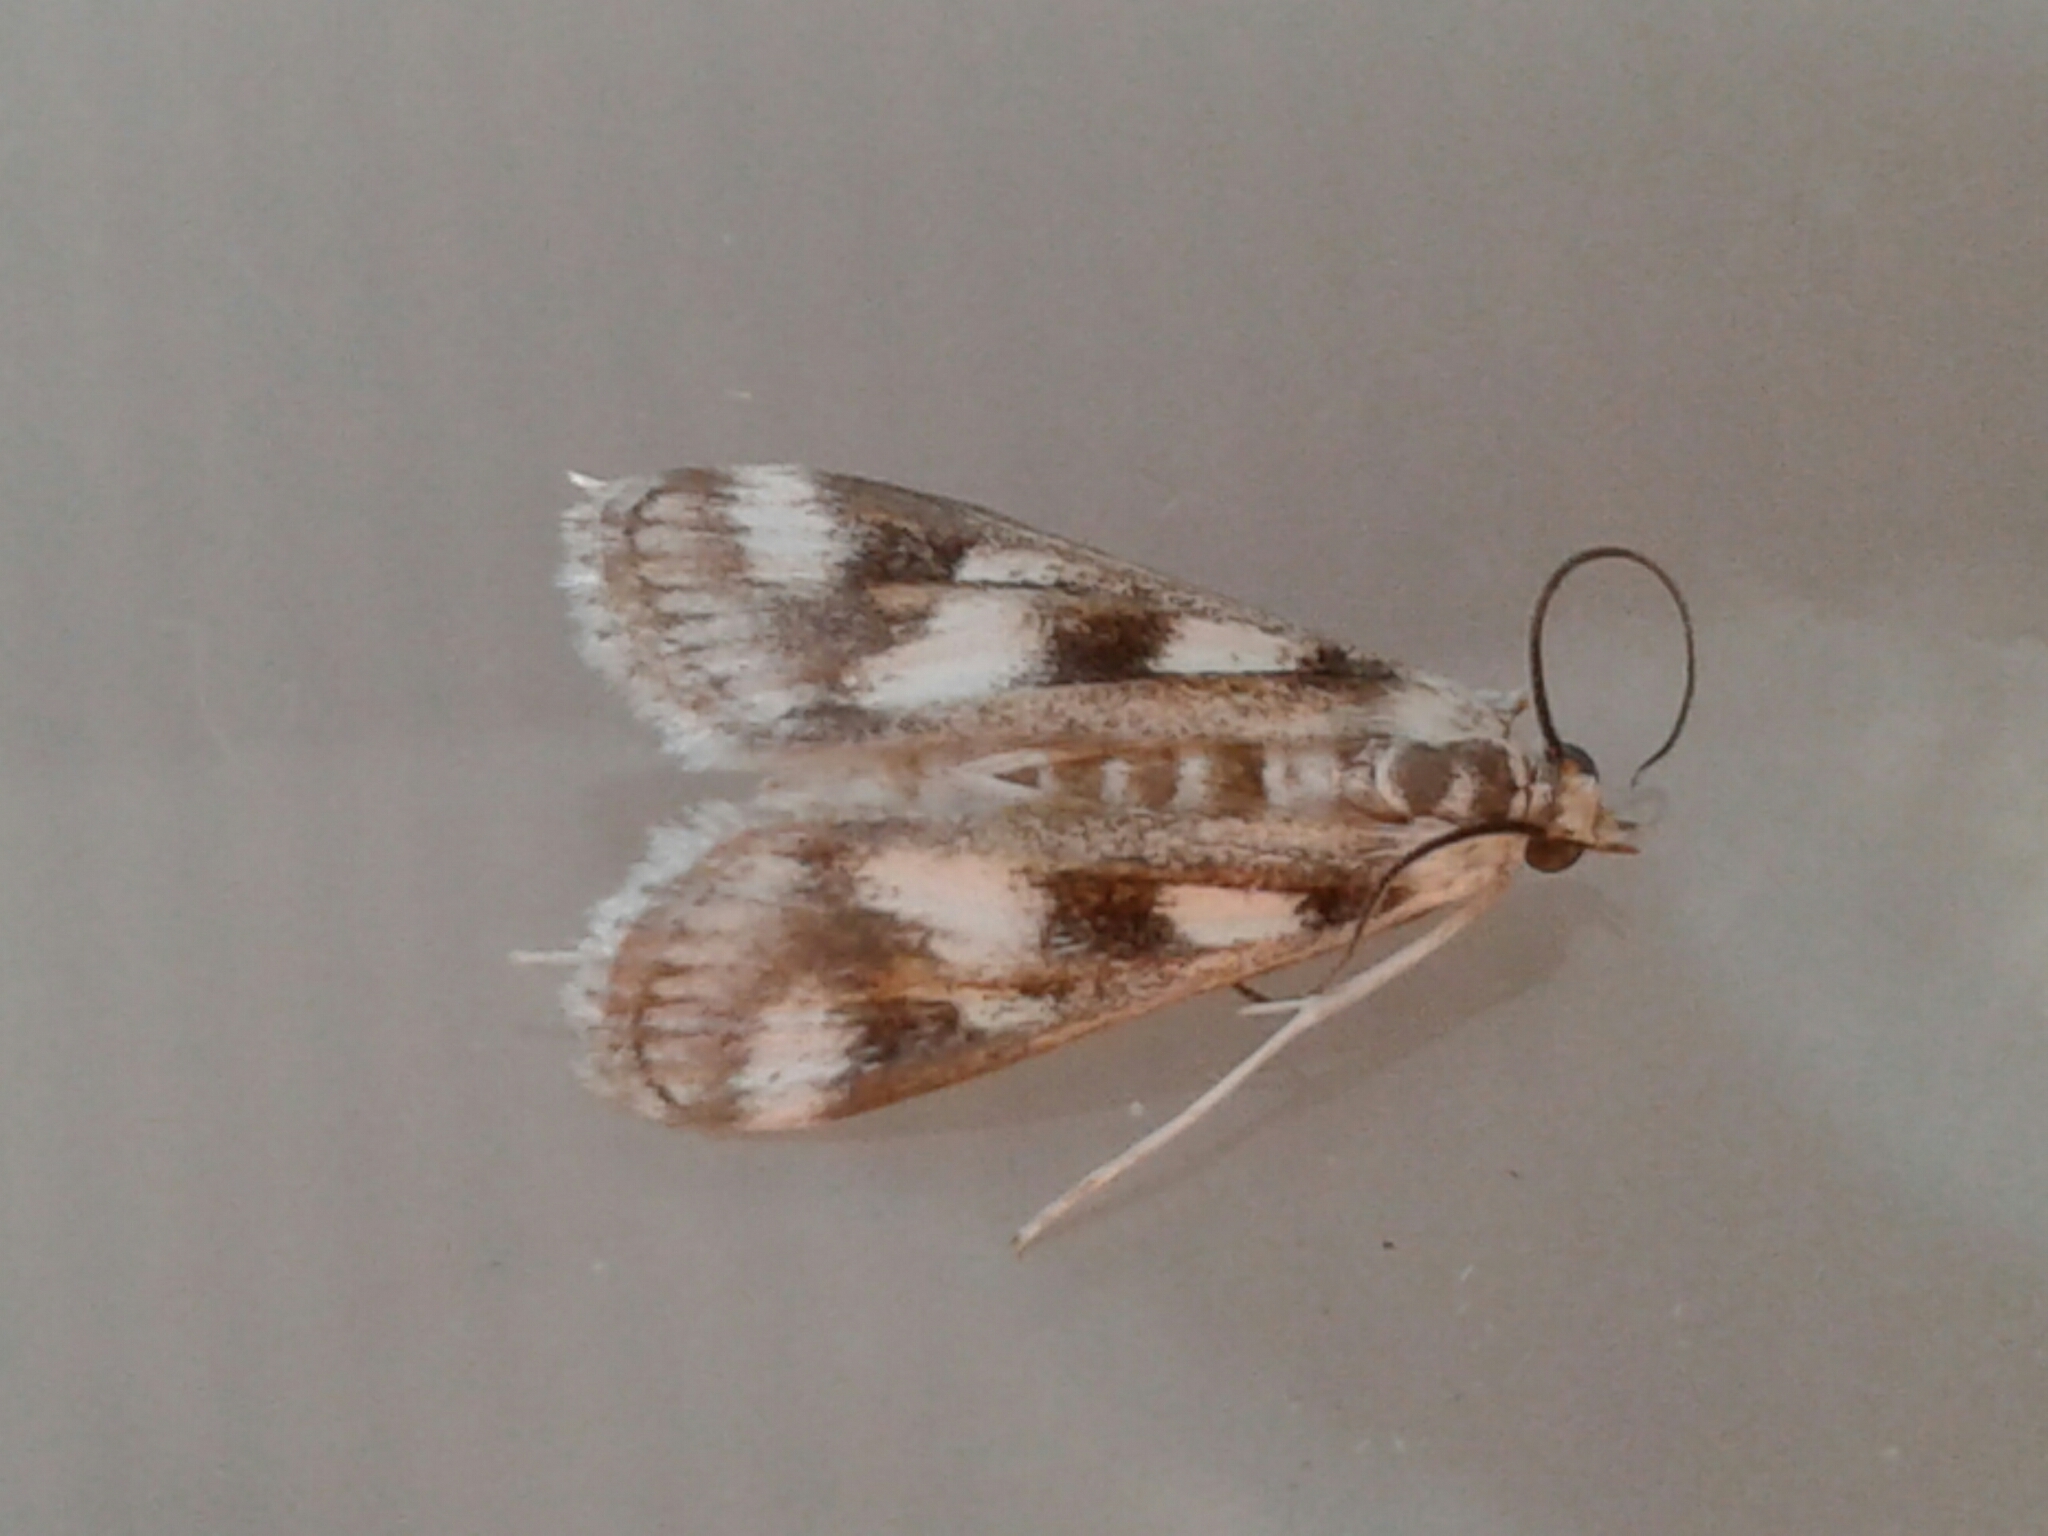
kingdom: Animalia
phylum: Arthropoda
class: Insecta
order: Lepidoptera
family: Crambidae
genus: Parapoynx
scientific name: Parapoynx maculalis
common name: Polymorphic pondweed moth
